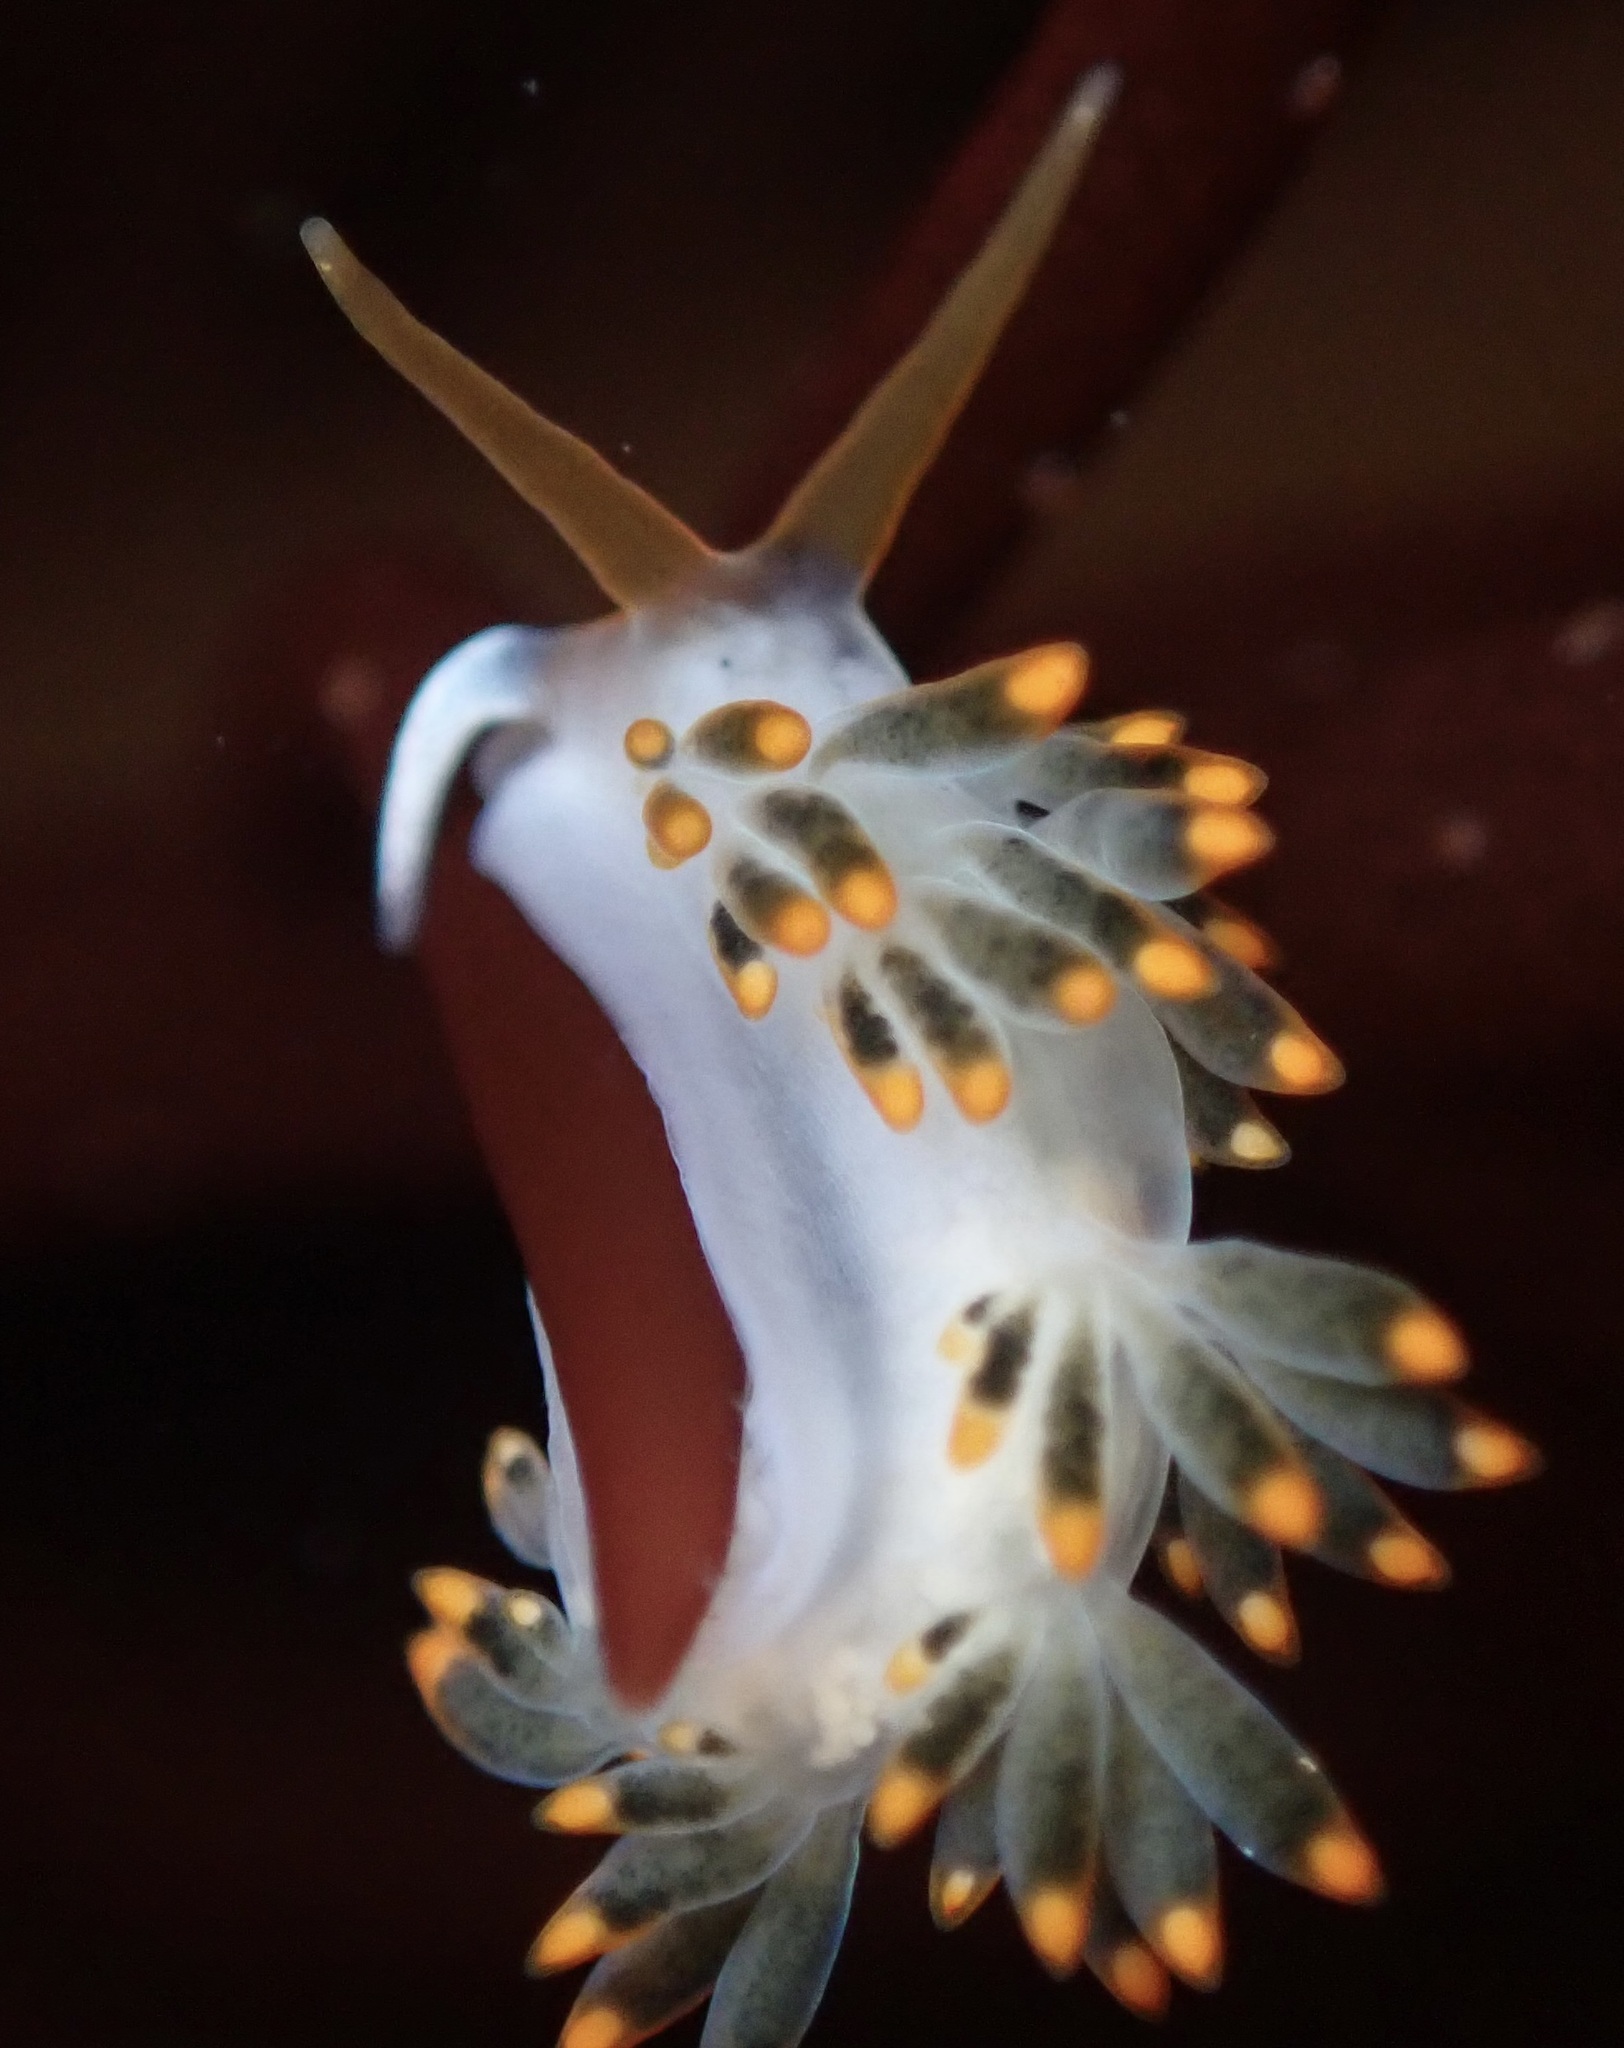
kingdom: Animalia
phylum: Mollusca
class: Gastropoda
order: Nudibranchia
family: Trinchesiidae
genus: Diaphoreolis
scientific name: Diaphoreolis lagunae
